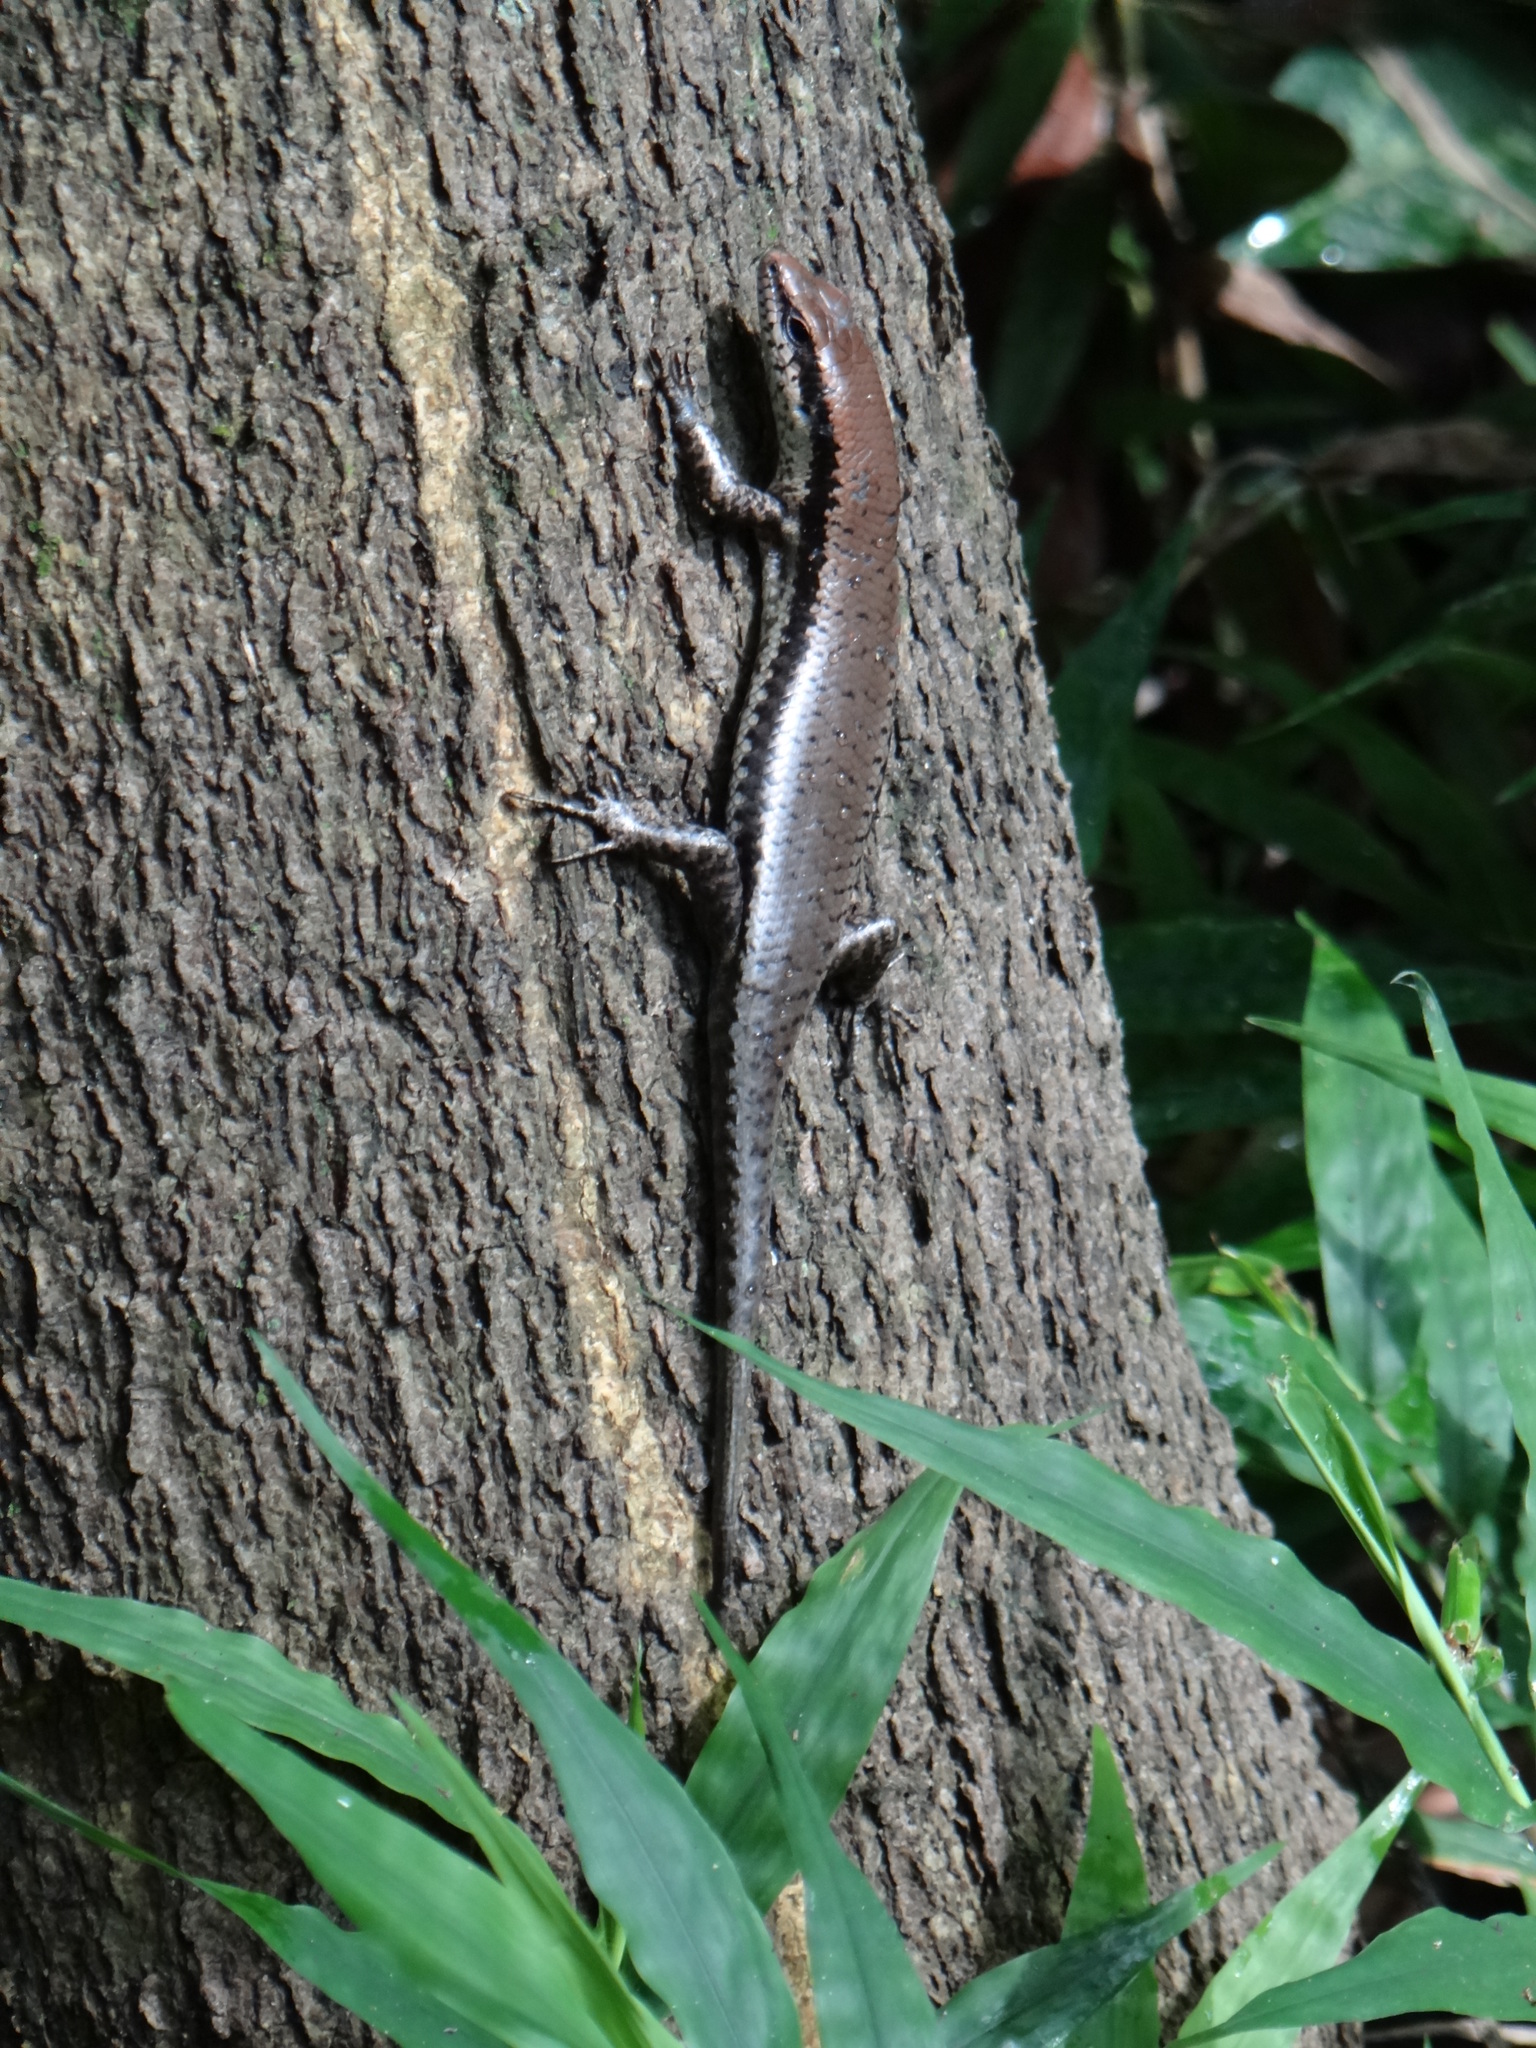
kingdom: Animalia
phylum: Chordata
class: Squamata
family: Scincidae
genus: Copeoglossum
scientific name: Copeoglossum nigropunctatum
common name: Black-spotted skink
